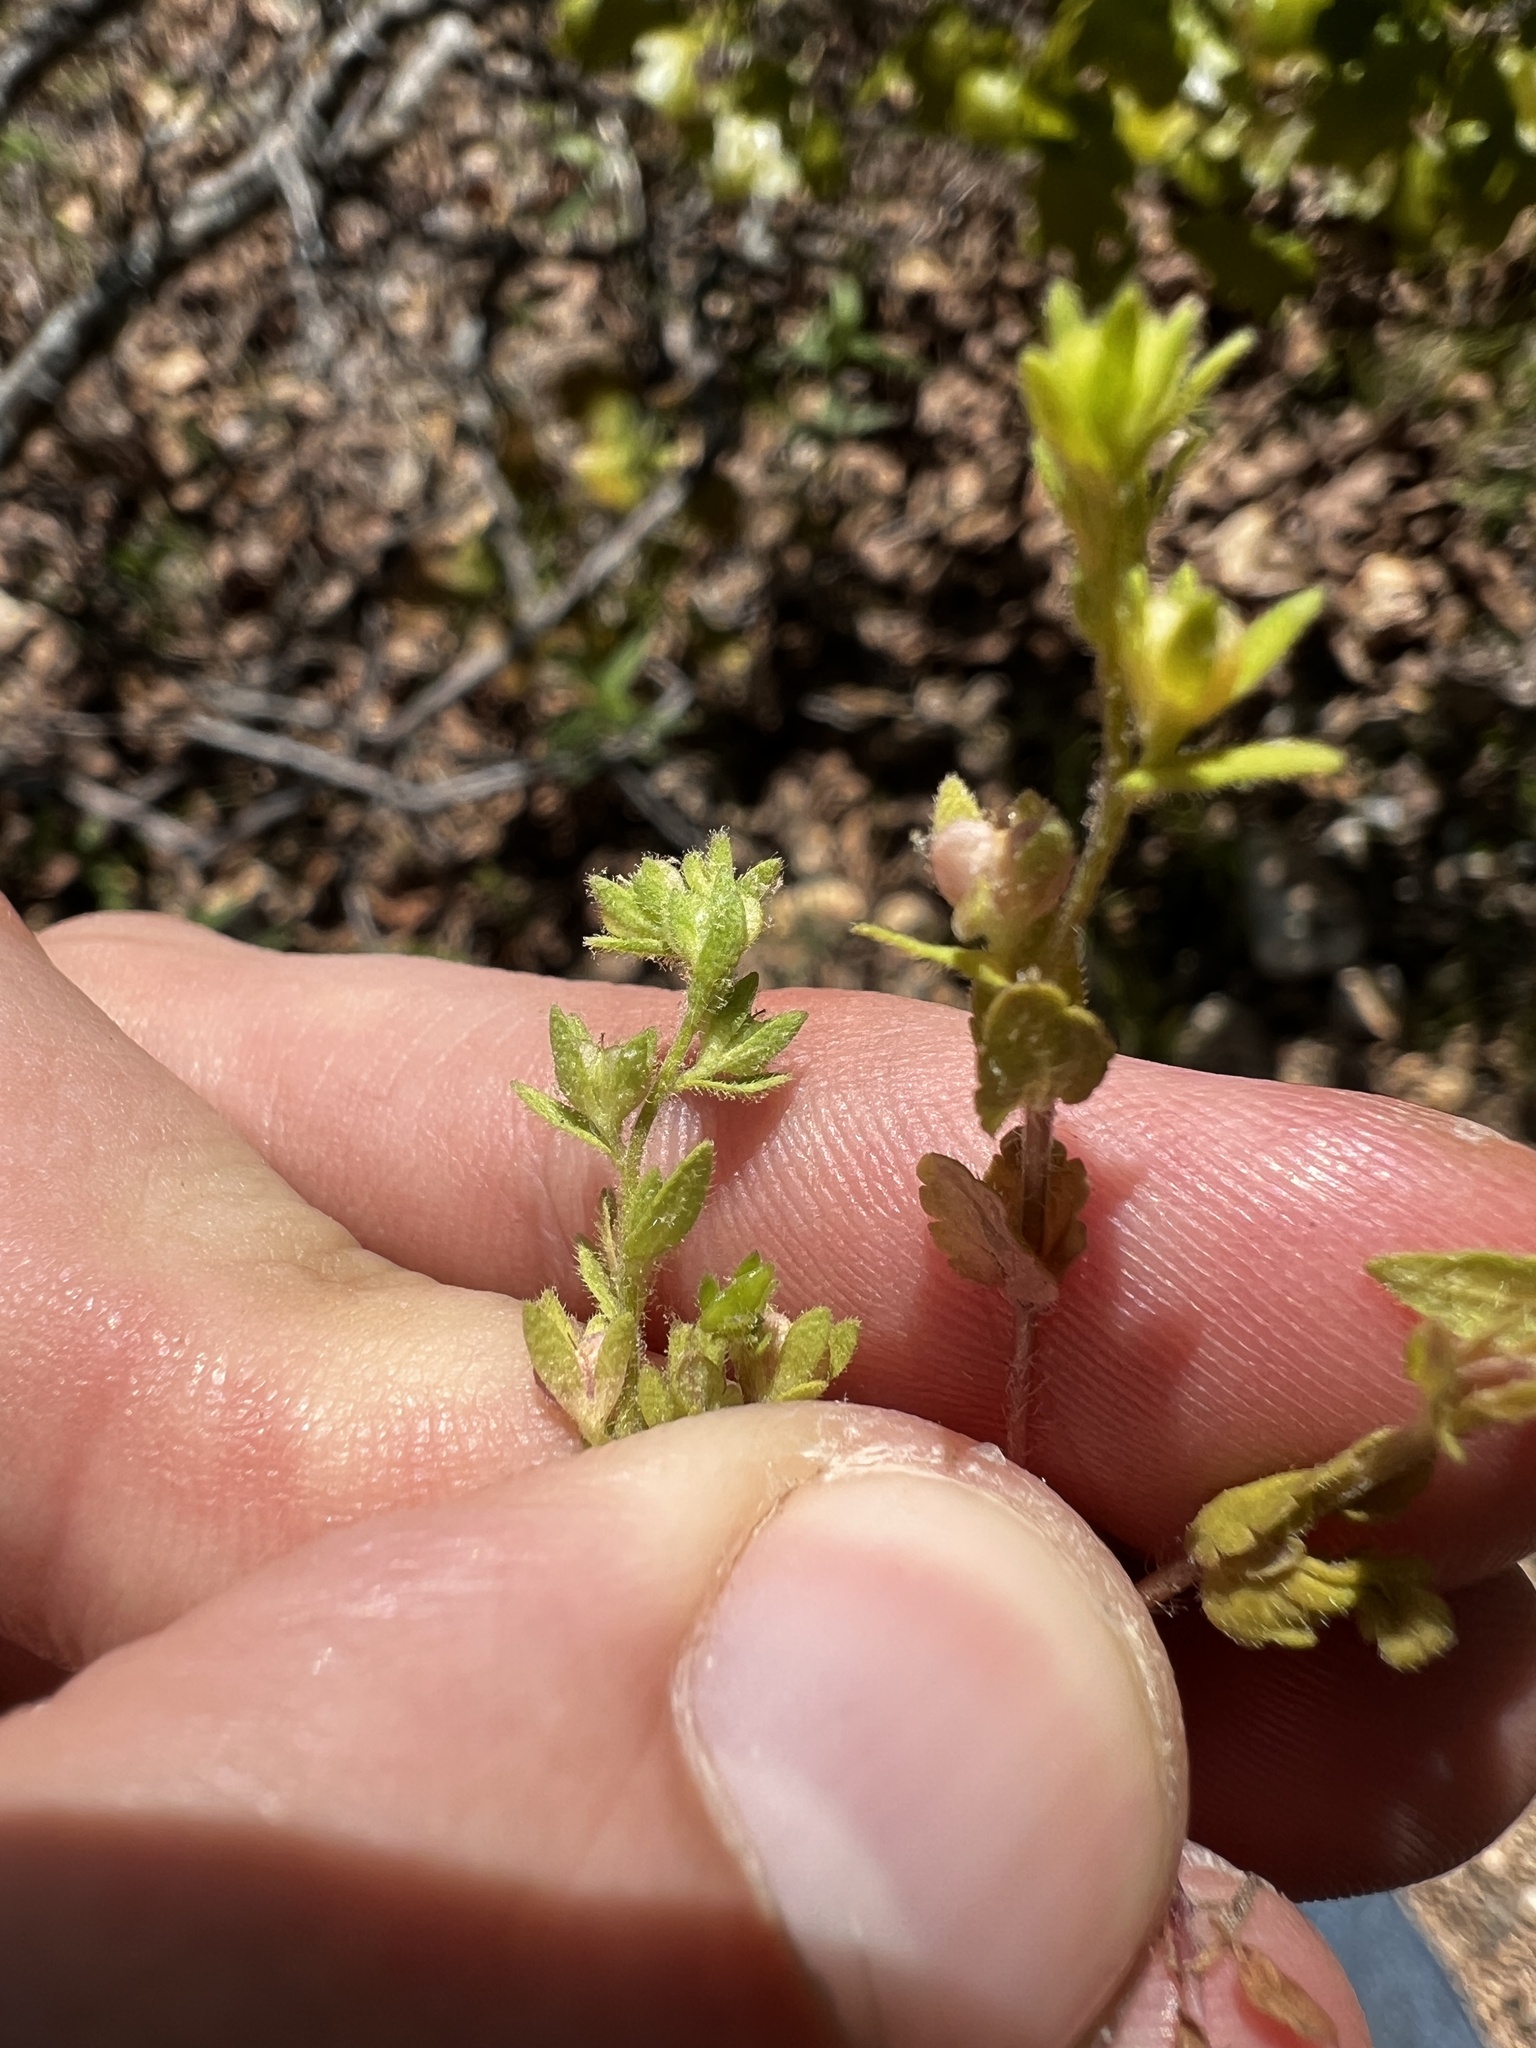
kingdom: Plantae
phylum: Tracheophyta
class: Magnoliopsida
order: Lamiales
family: Plantaginaceae
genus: Veronica
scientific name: Veronica arvensis
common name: Corn speedwell
